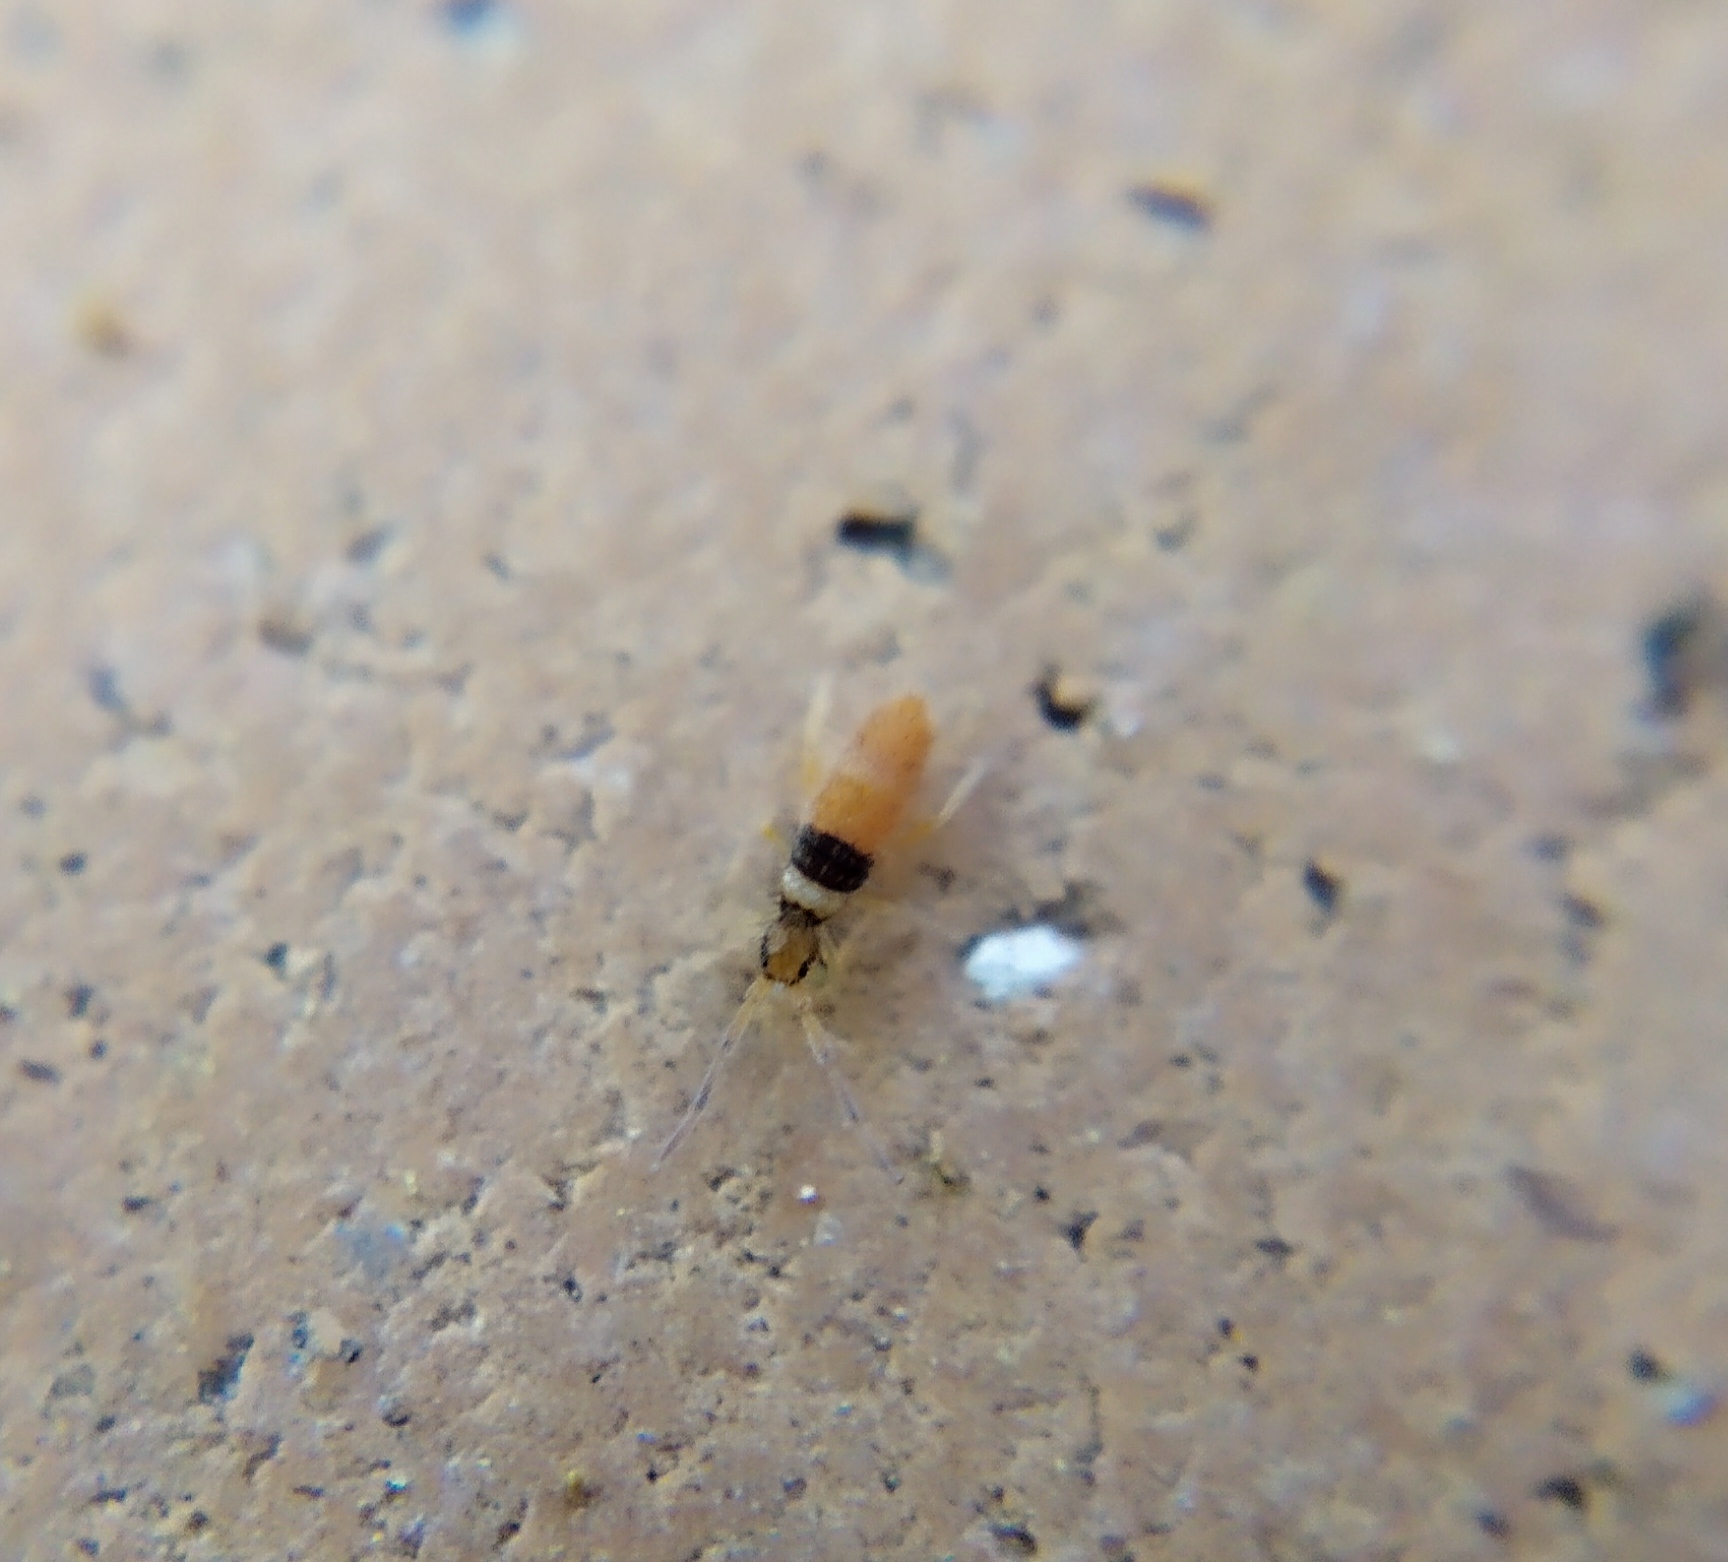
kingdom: Animalia
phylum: Arthropoda
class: Collembola
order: Entomobryomorpha
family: Entomobryidae
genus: Entomobrya
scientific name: Entomobrya nigrocincta
